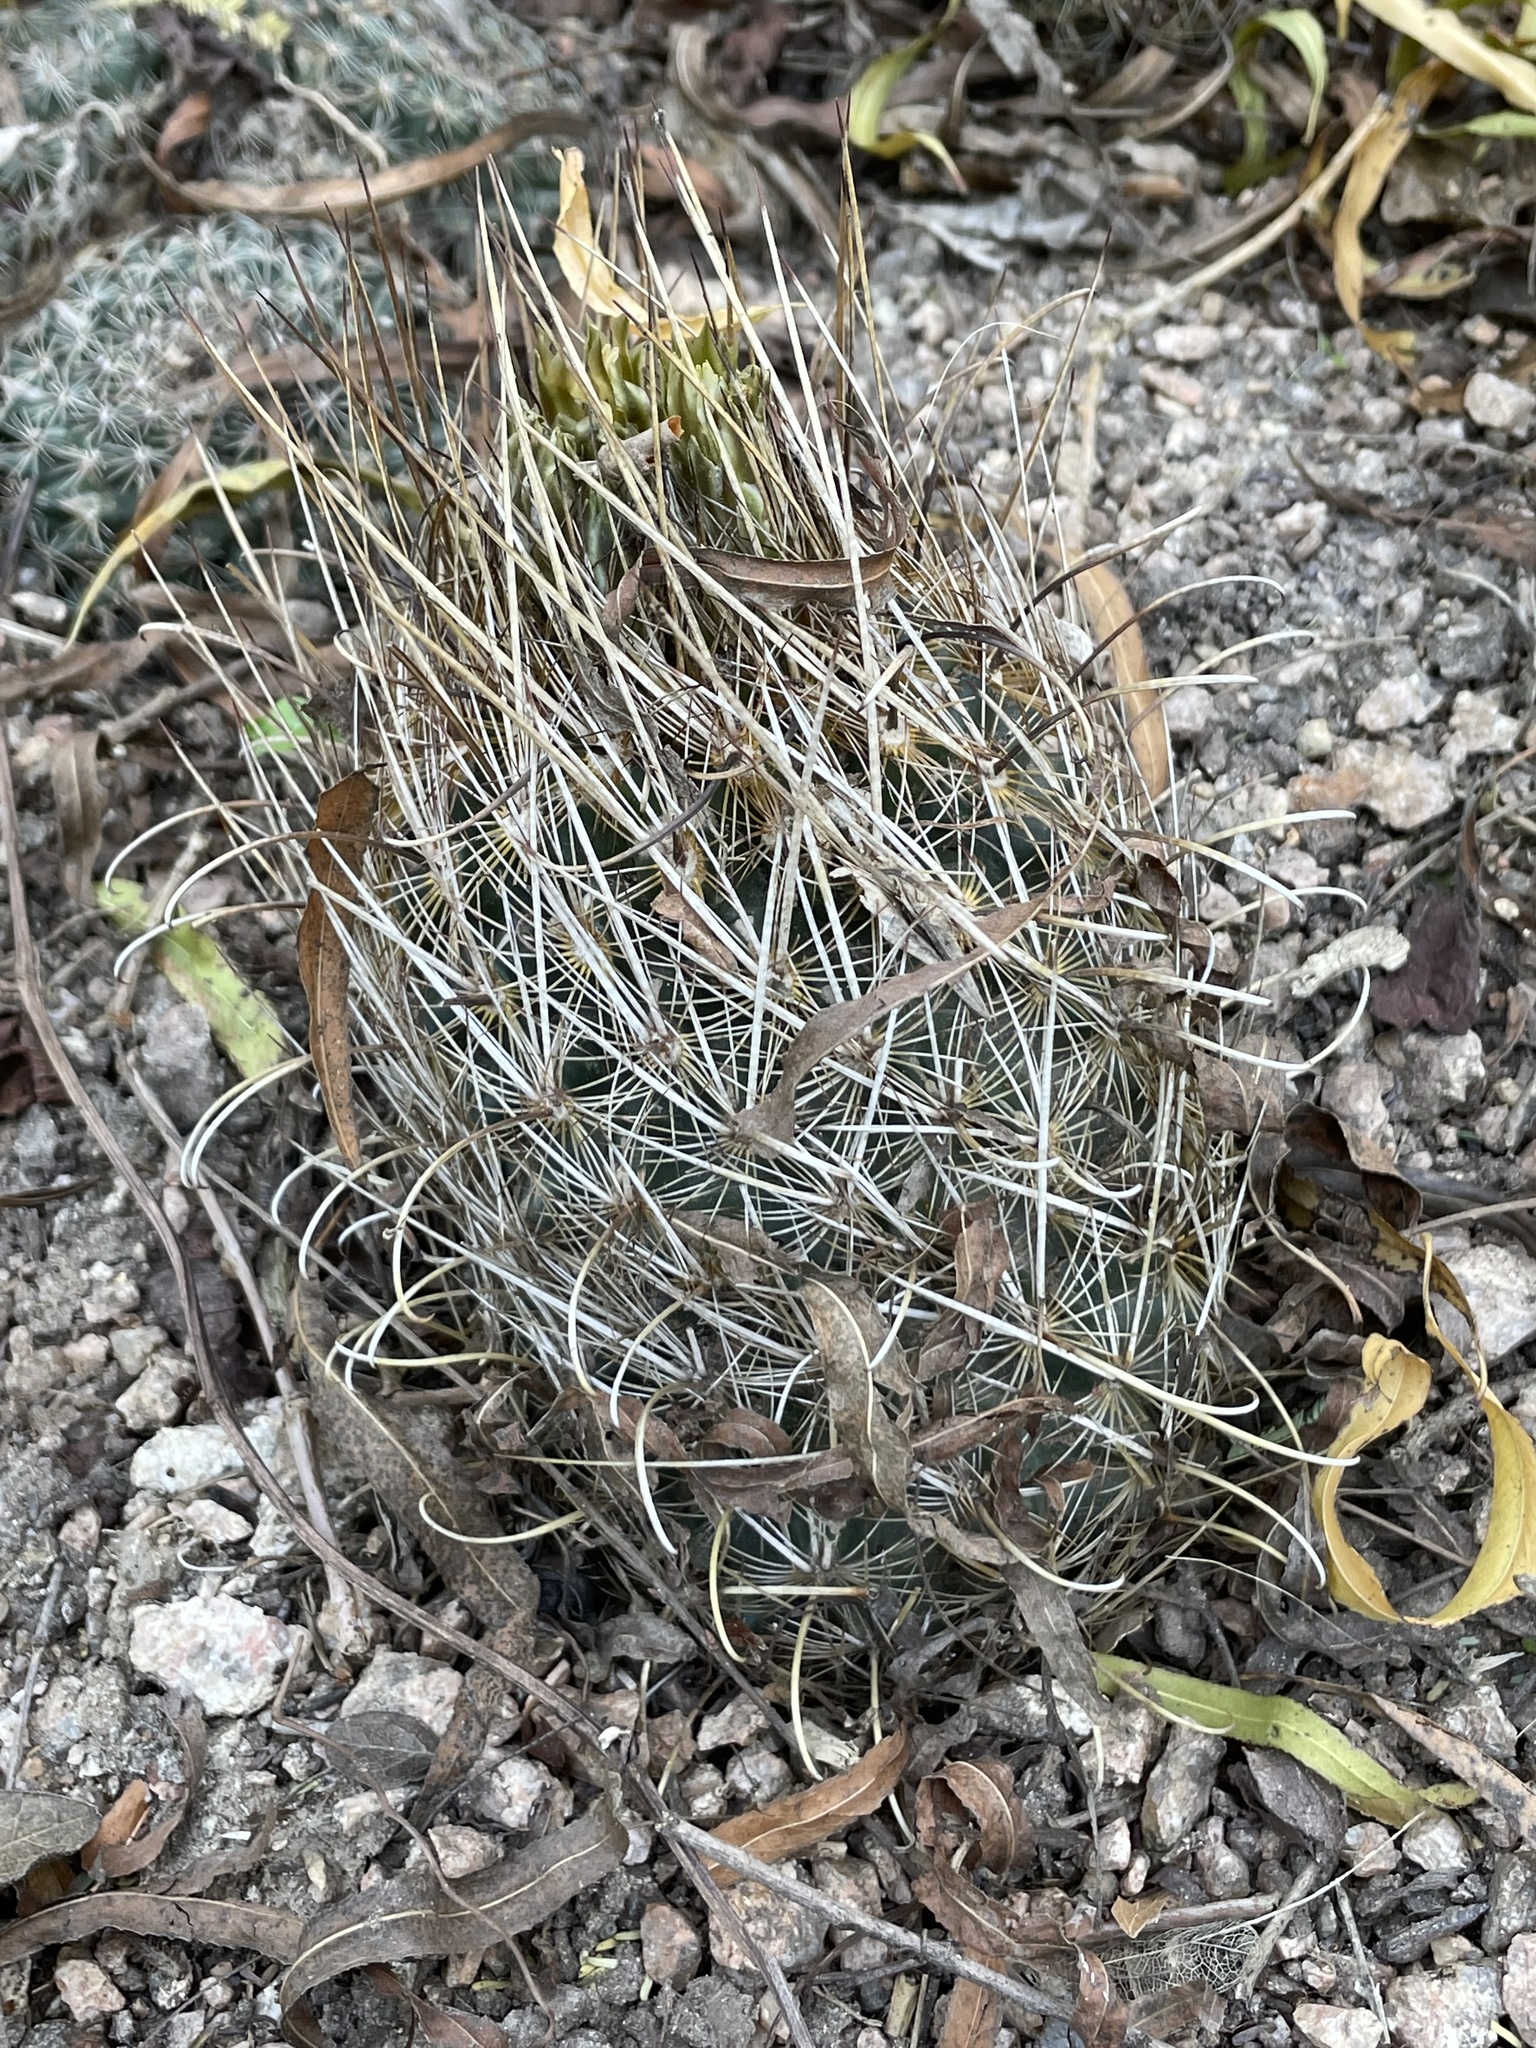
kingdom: Plantae
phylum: Tracheophyta
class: Magnoliopsida
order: Caryophyllales
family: Cactaceae
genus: Sclerocactus
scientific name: Sclerocactus scheerii
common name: Scheer's fish-hook cactus
